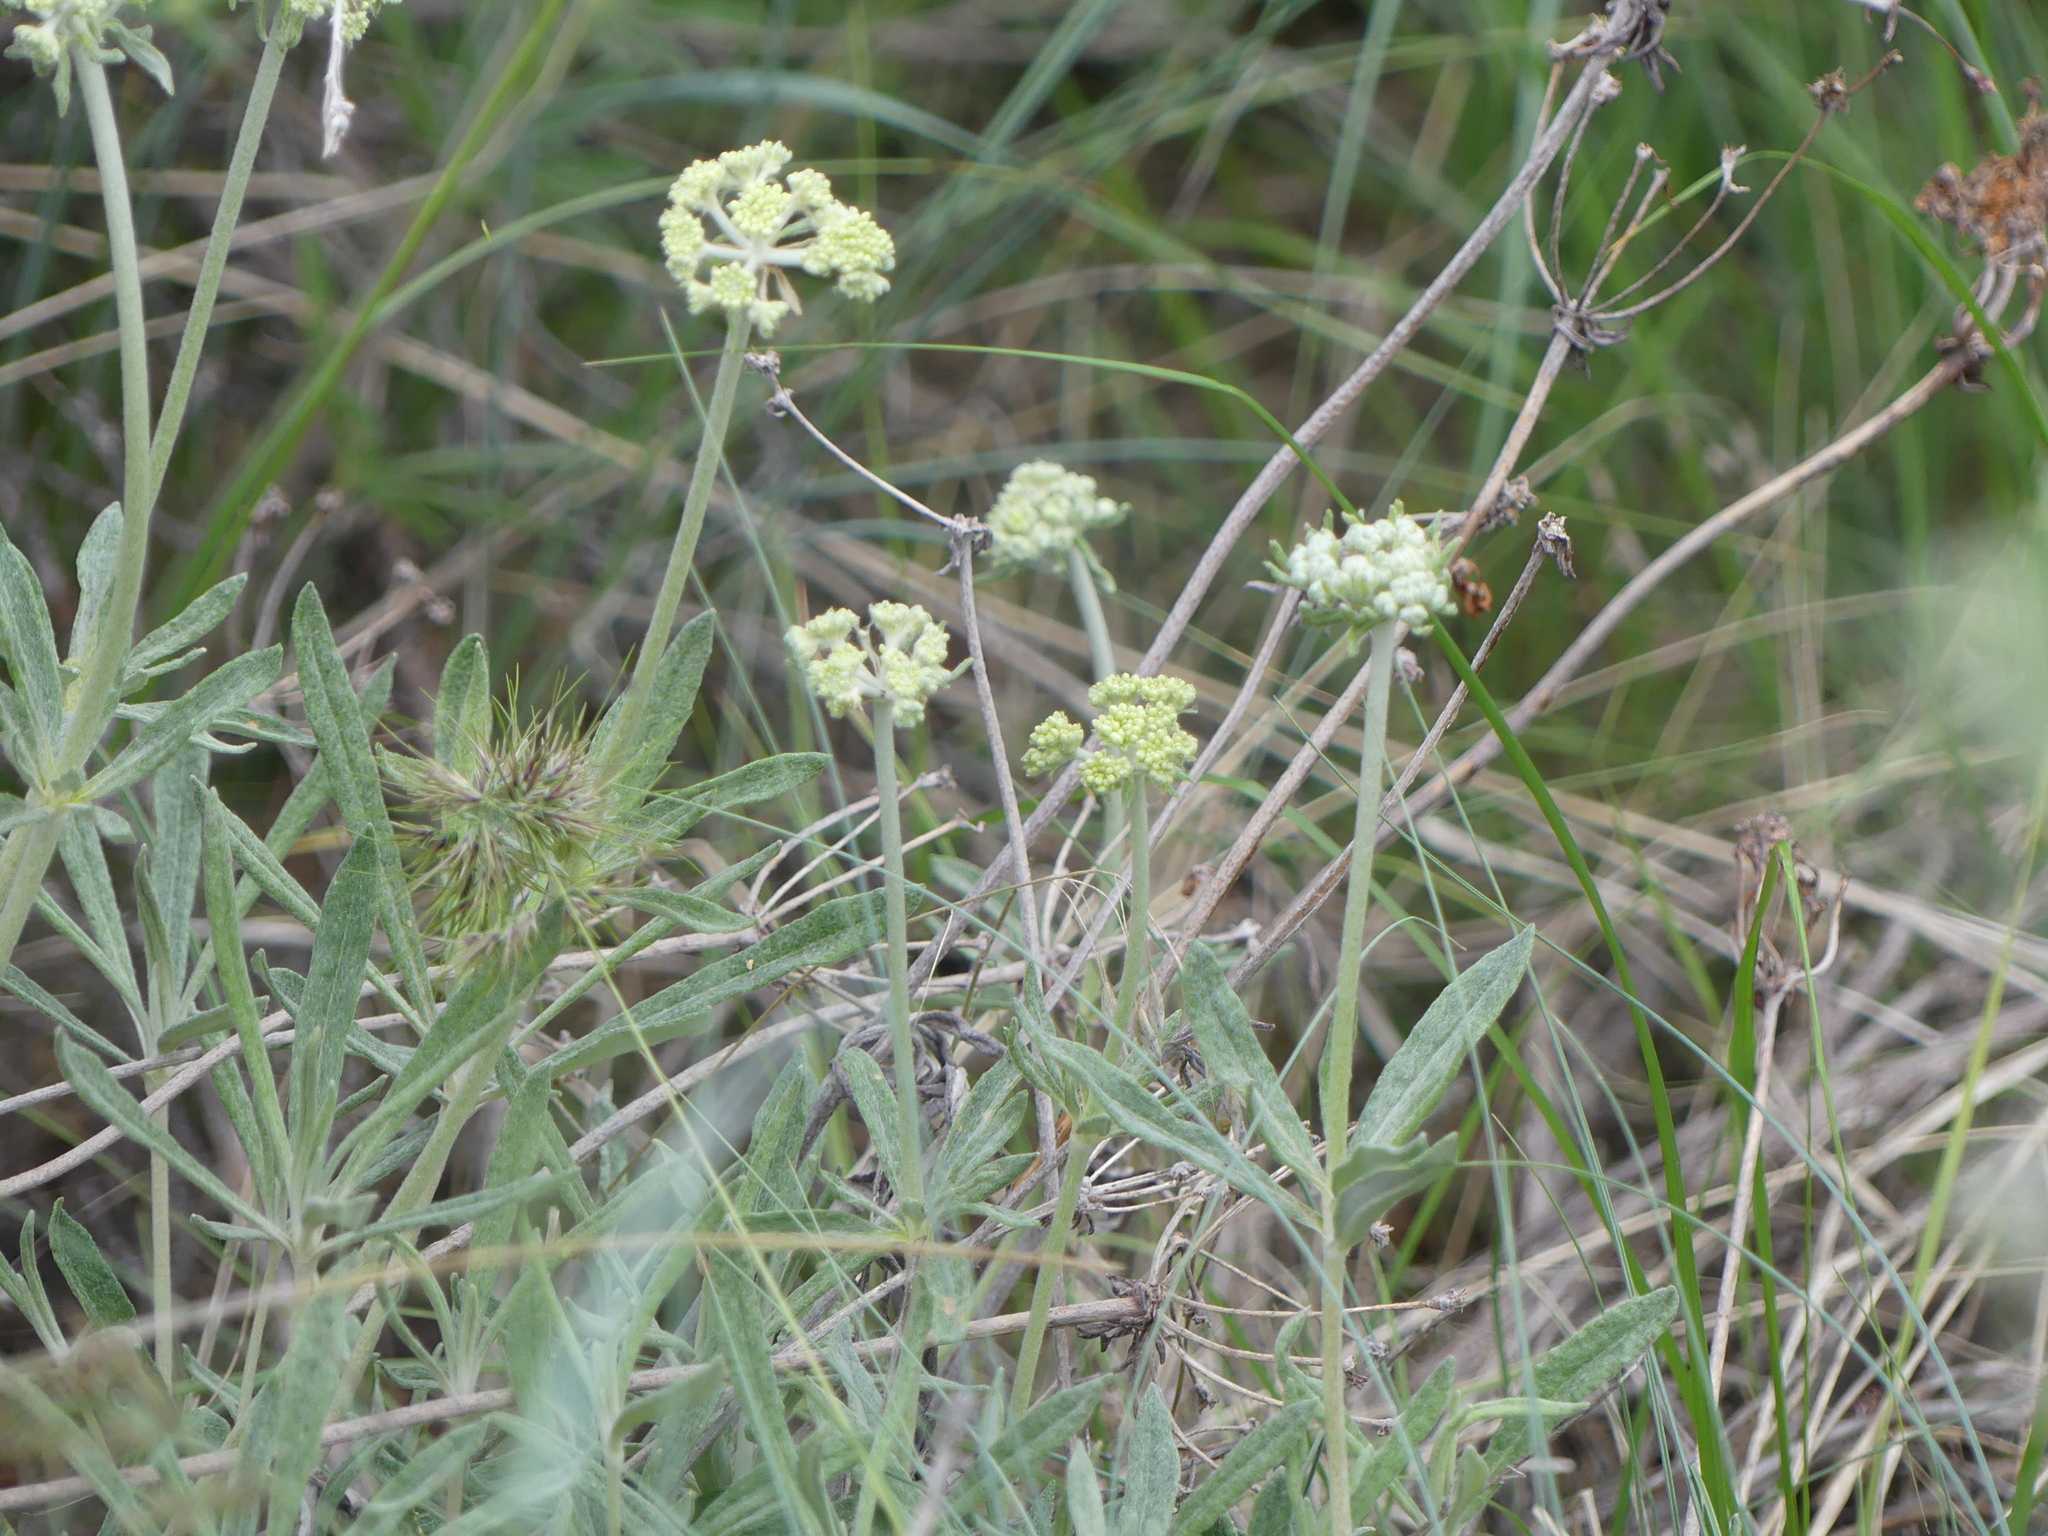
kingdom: Plantae
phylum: Tracheophyta
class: Magnoliopsida
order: Caryophyllales
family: Polygonaceae
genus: Eriogonum
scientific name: Eriogonum heracleoides
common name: Wyeth's buckwheat
